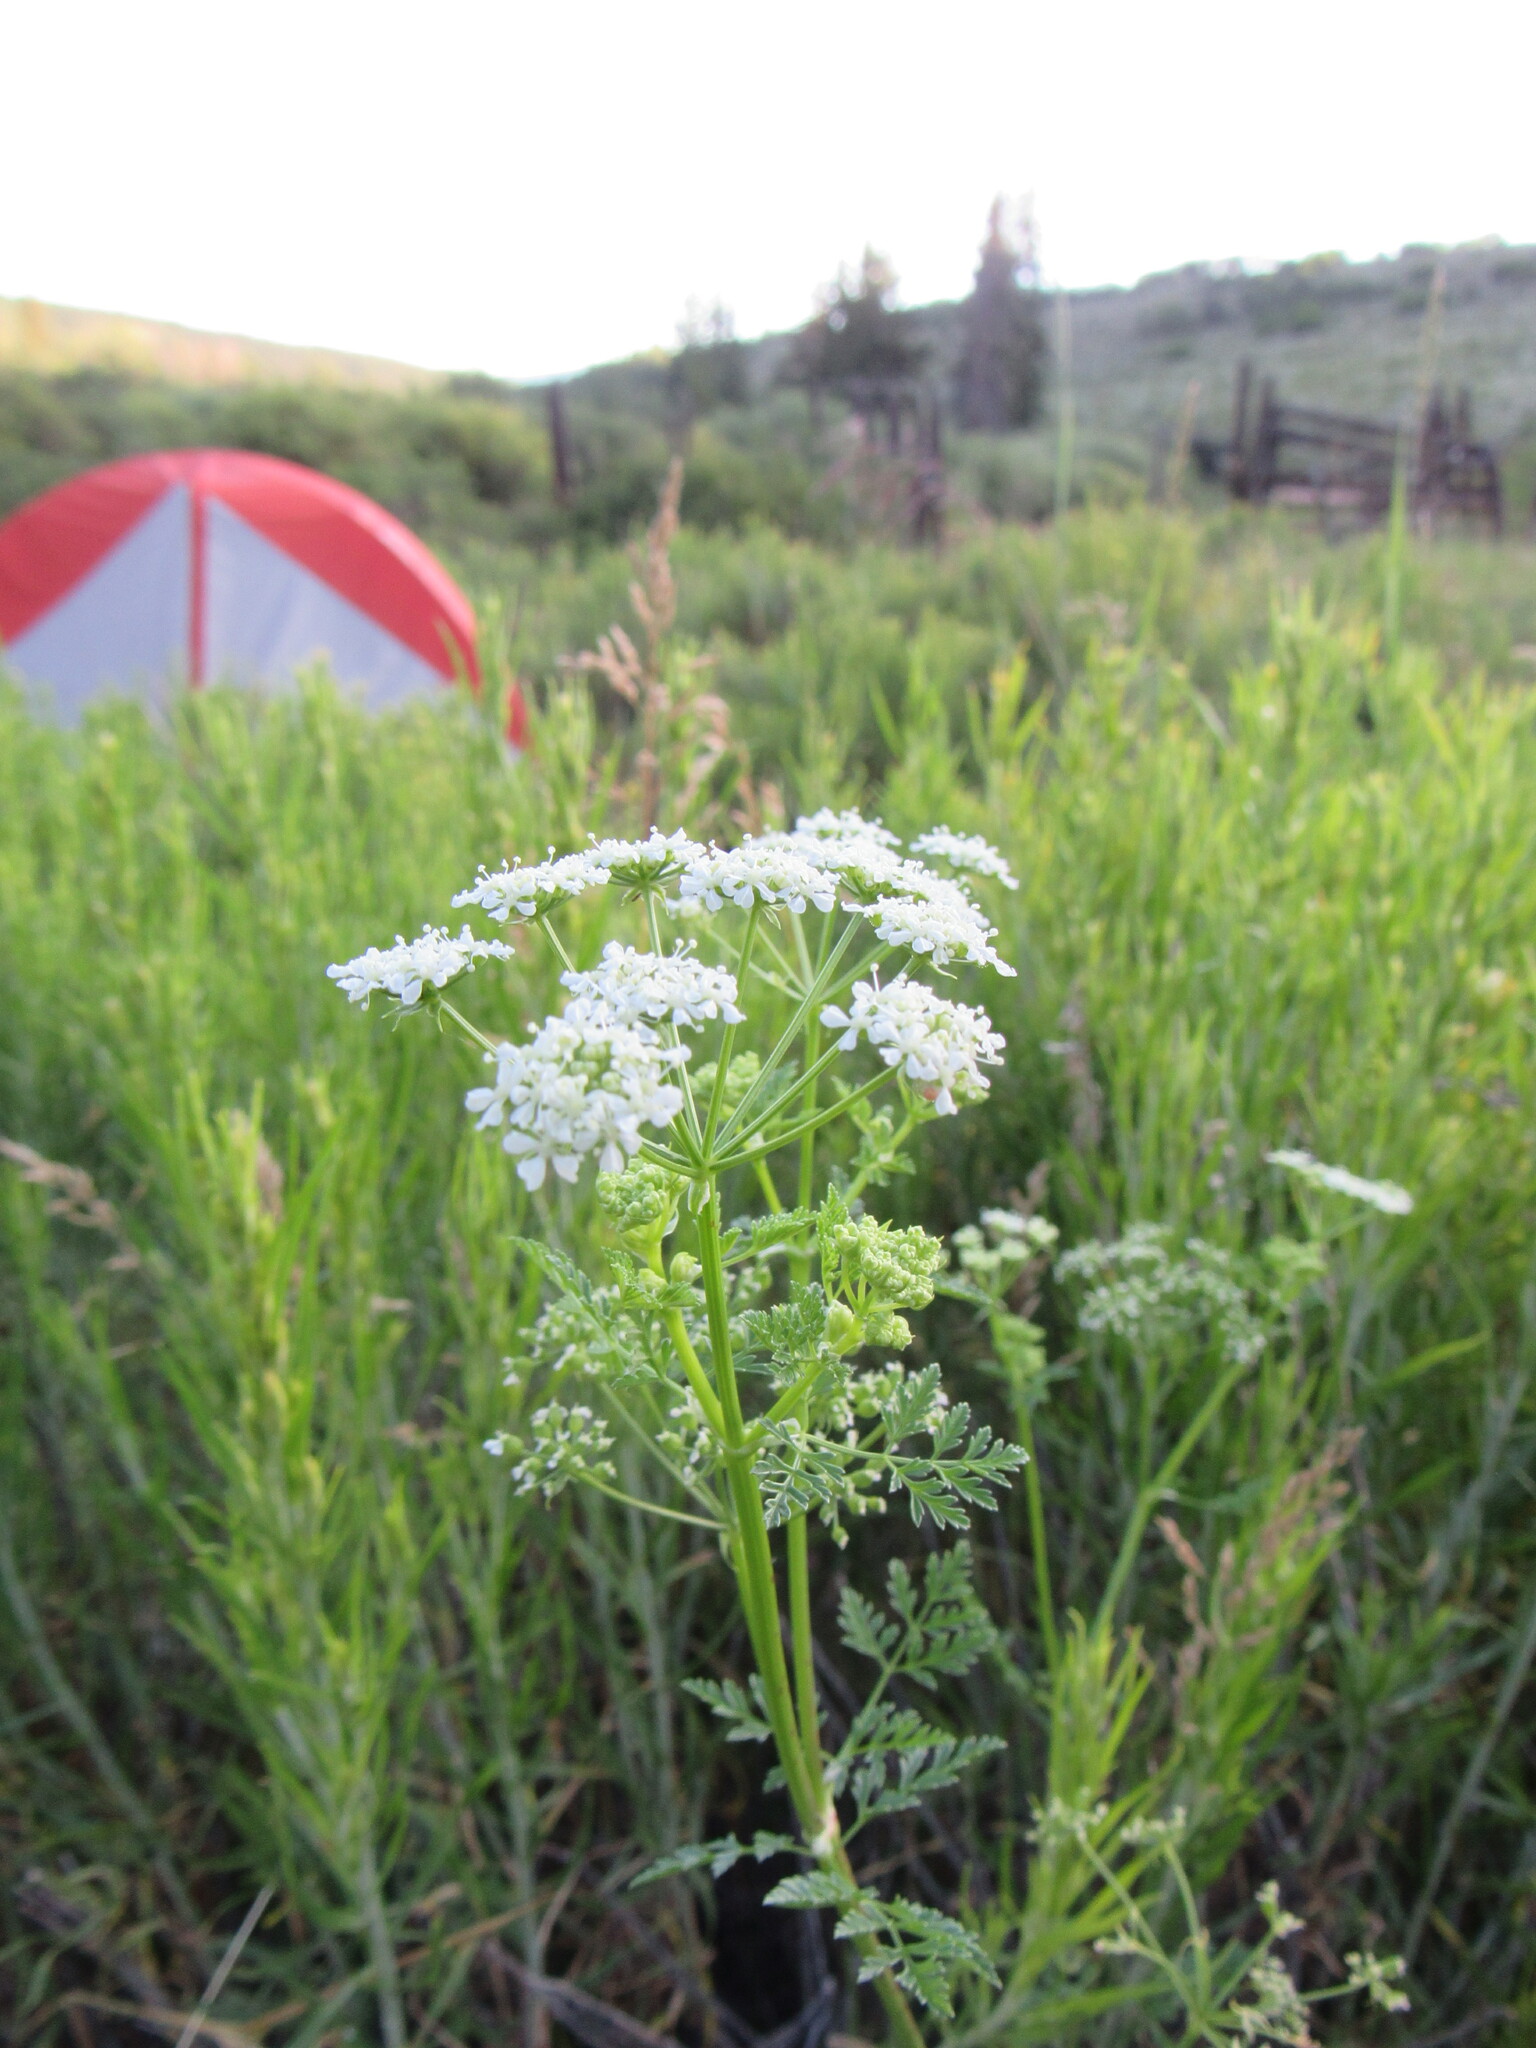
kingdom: Plantae
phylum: Tracheophyta
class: Magnoliopsida
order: Apiales
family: Apiaceae
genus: Conium
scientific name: Conium maculatum
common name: Hemlock
